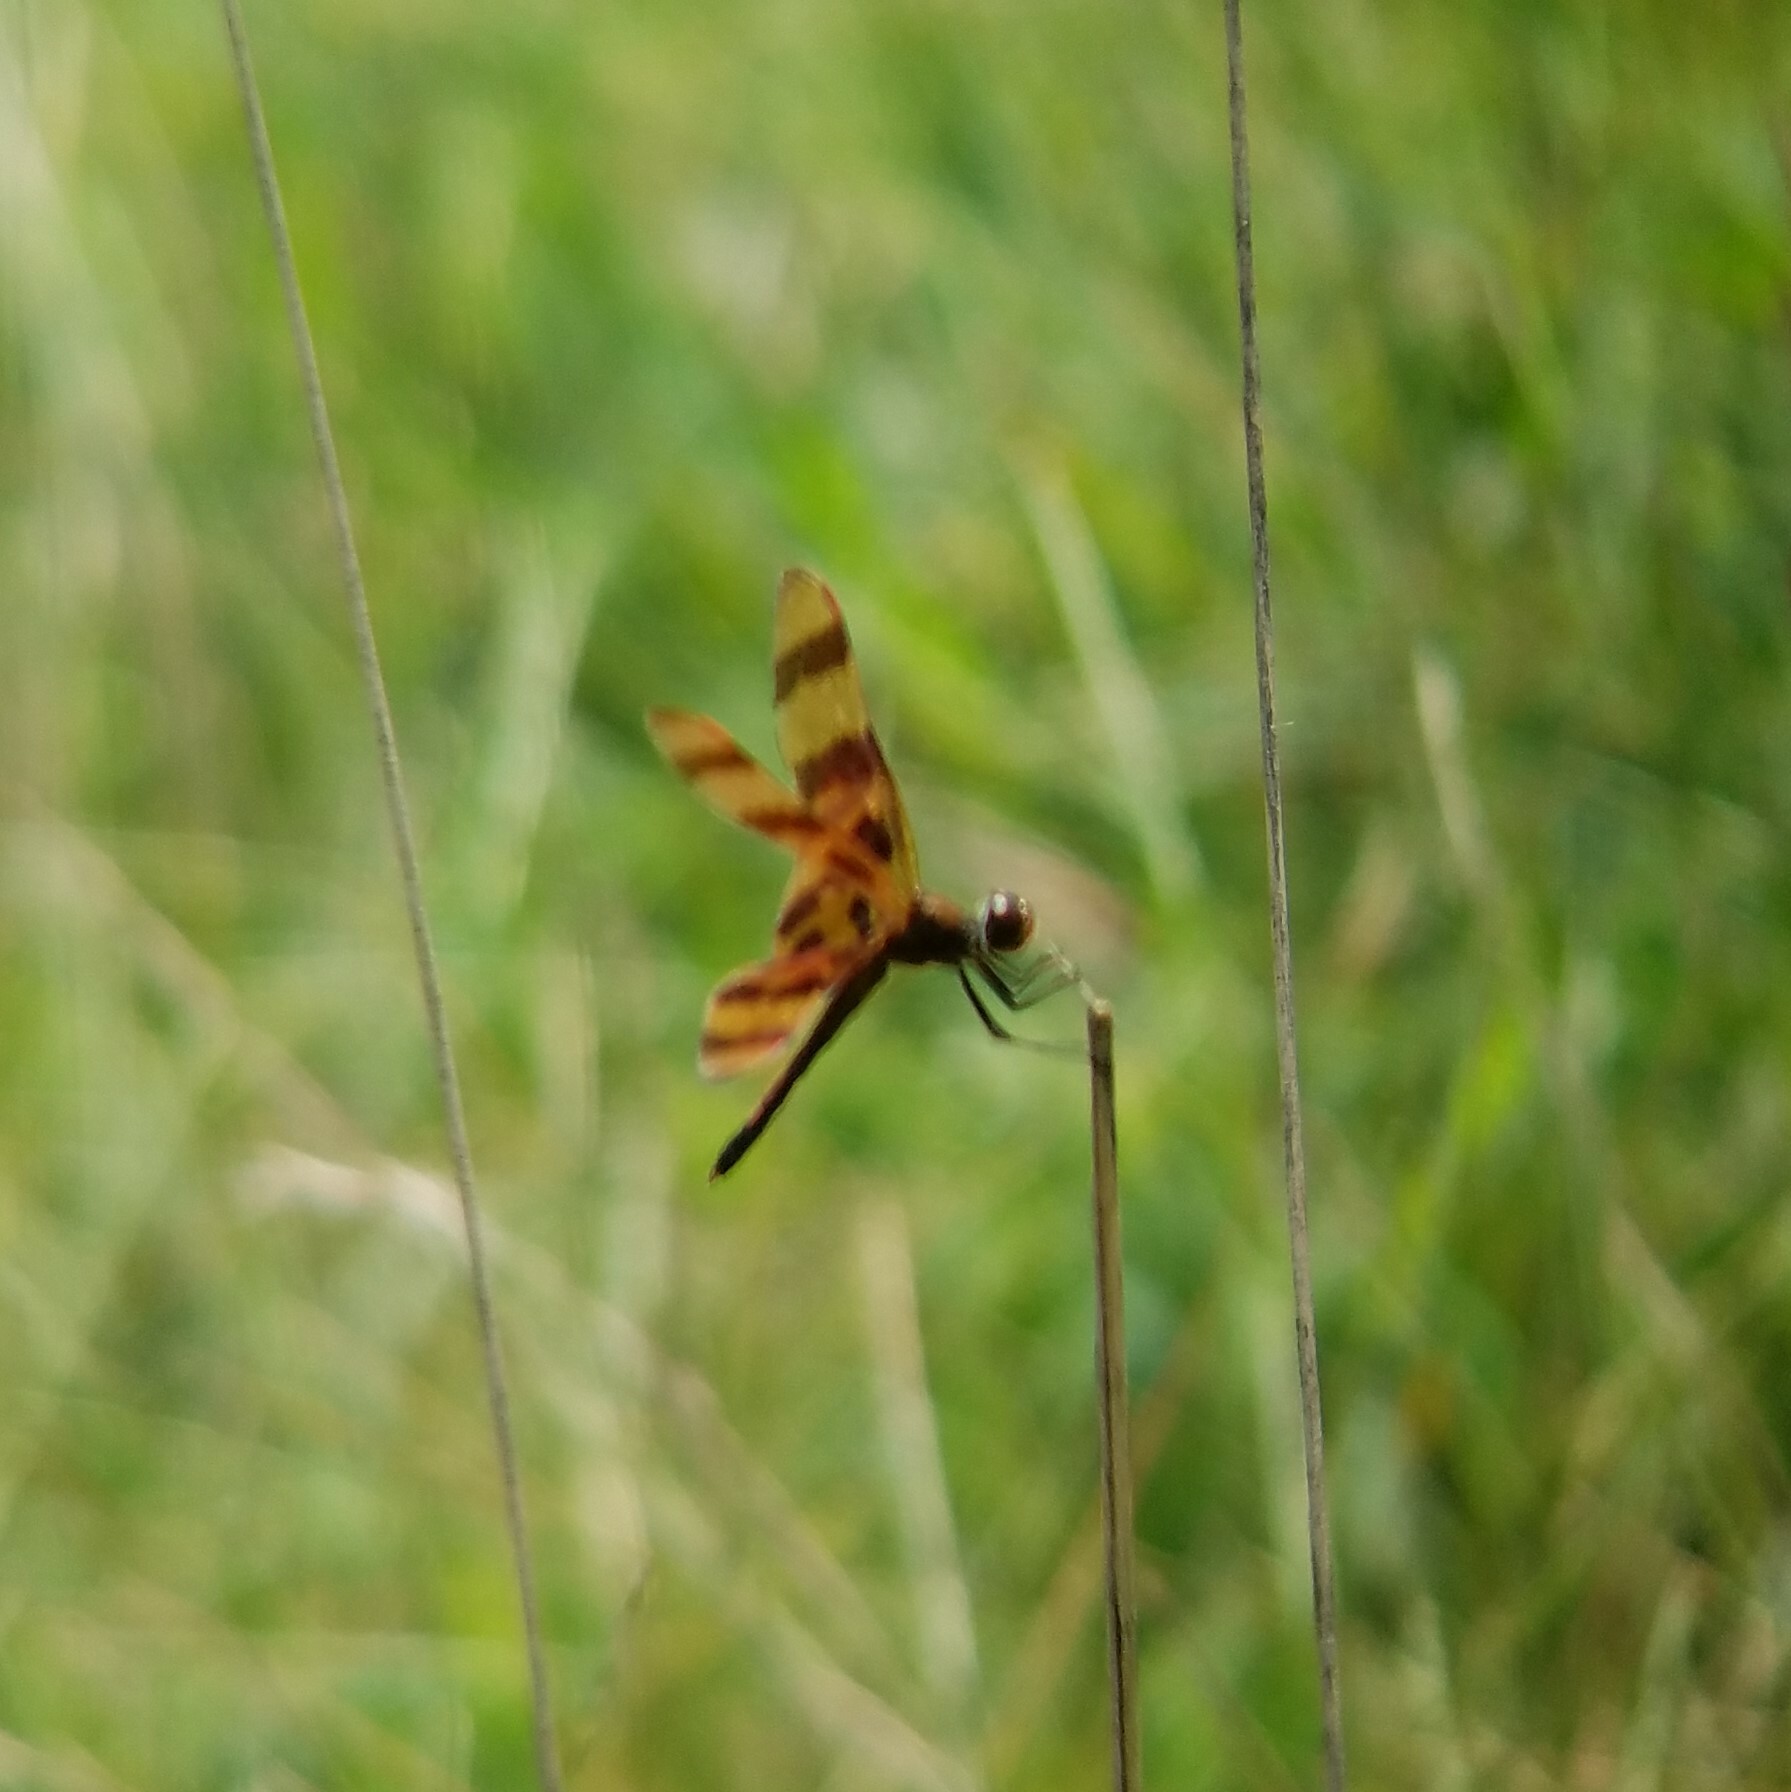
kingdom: Animalia
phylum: Arthropoda
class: Insecta
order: Odonata
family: Libellulidae
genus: Celithemis
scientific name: Celithemis eponina
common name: Halloween pennant
